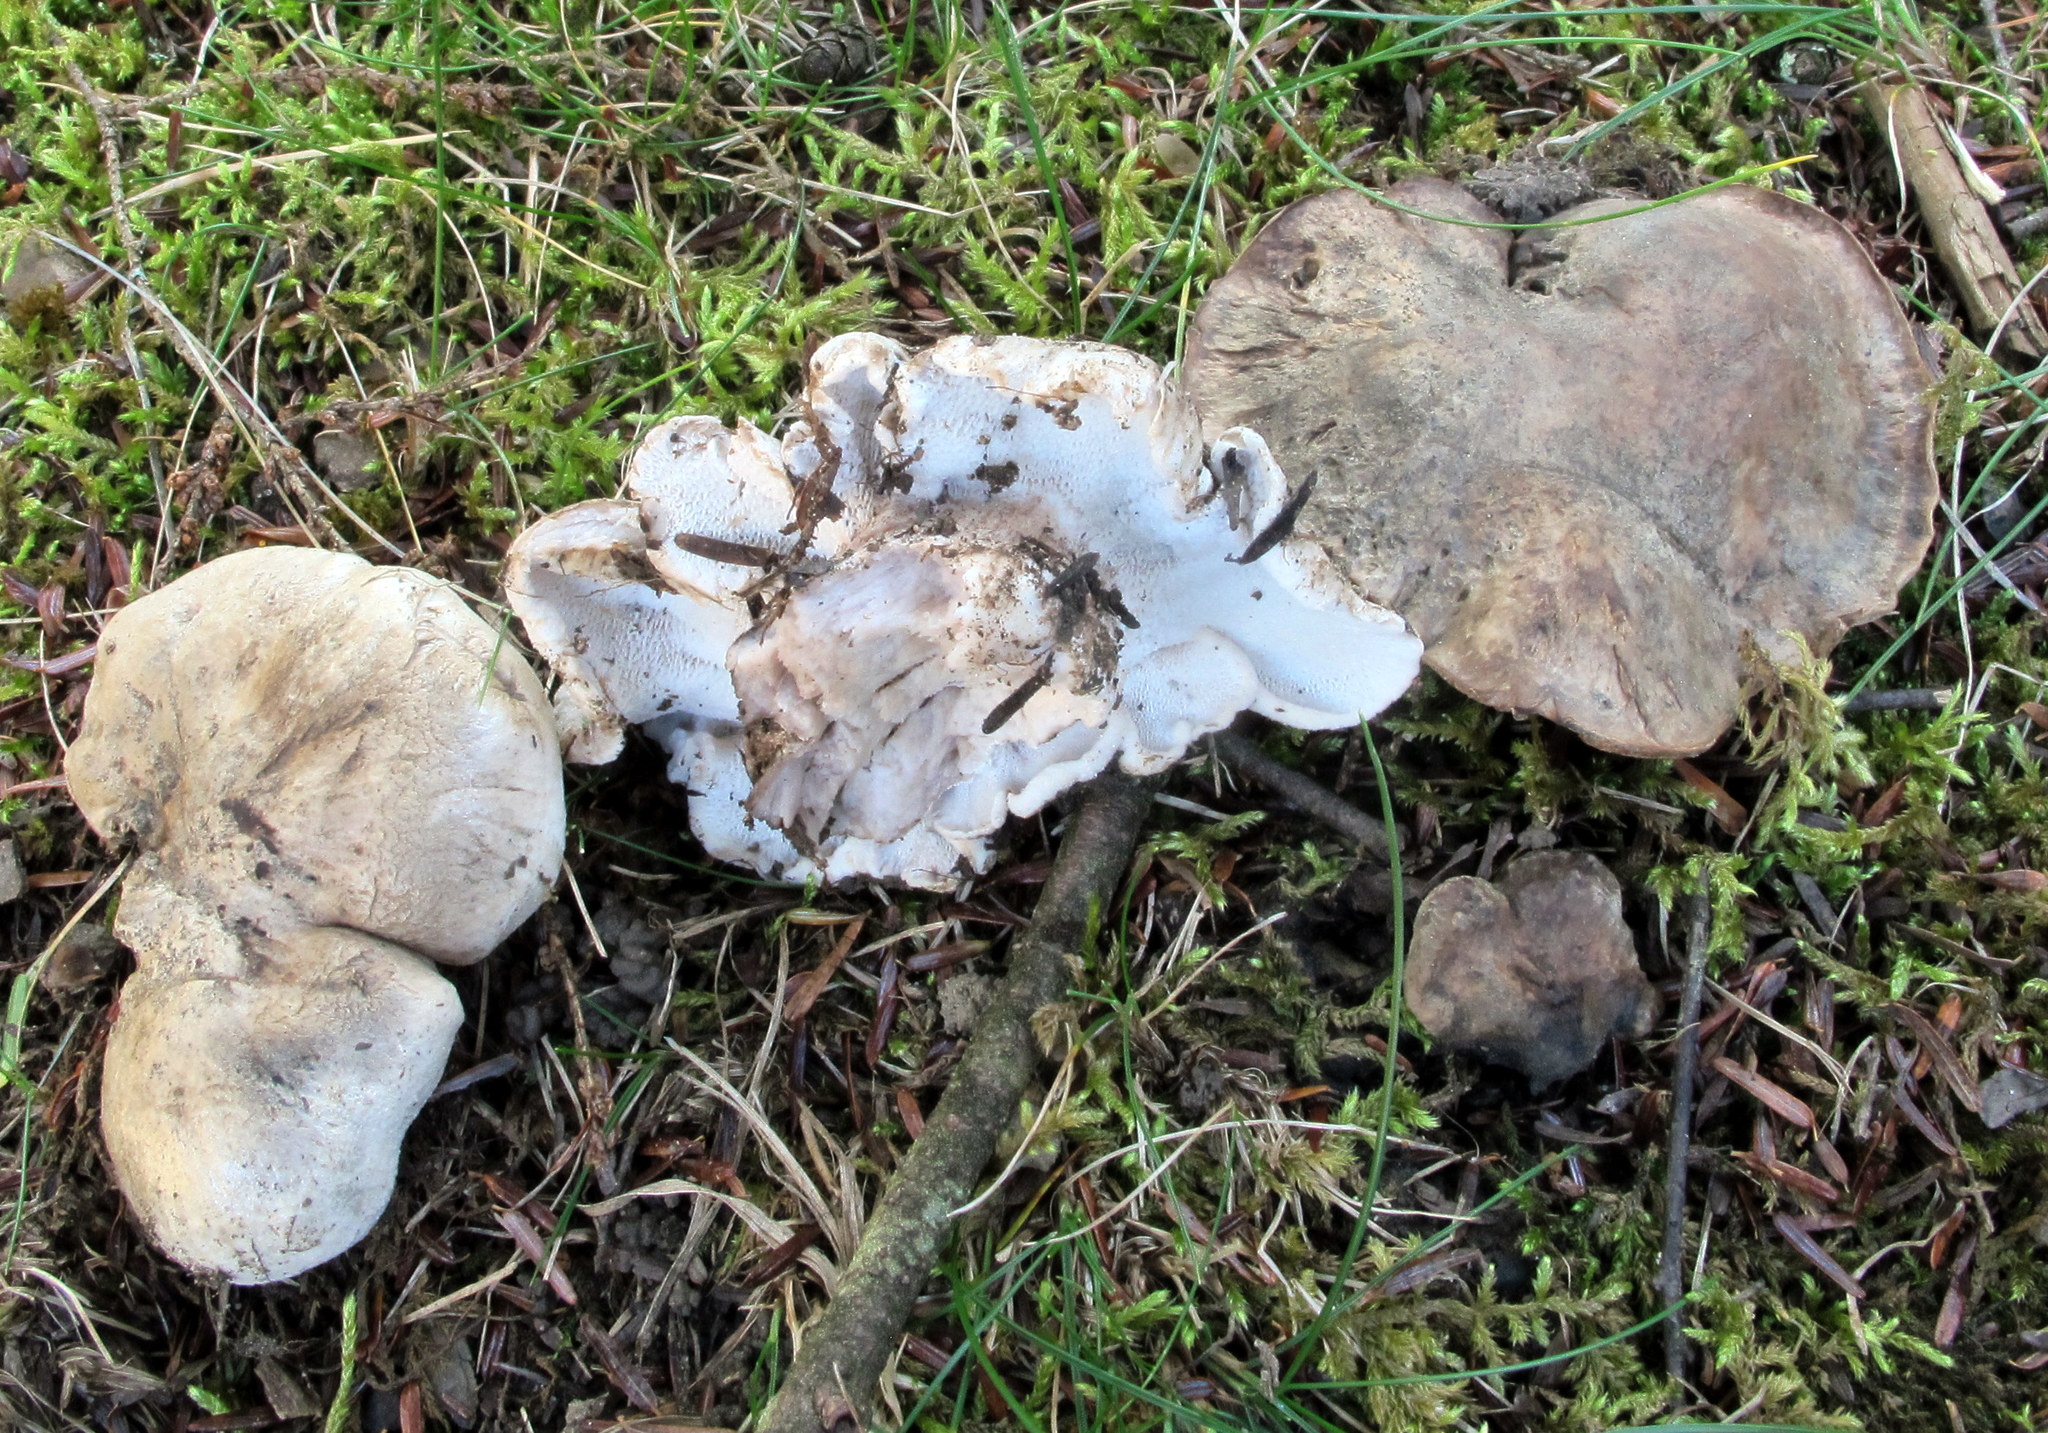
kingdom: Fungi
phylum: Basidiomycota
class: Agaricomycetes
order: Thelephorales
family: Bankeraceae
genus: Boletopsis
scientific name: Boletopsis grisea
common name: Grey falsebolete
